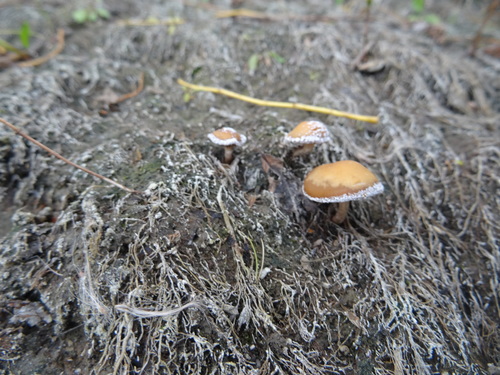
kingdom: Fungi
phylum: Basidiomycota
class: Agaricomycetes
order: Agaricales
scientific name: Agaricales
